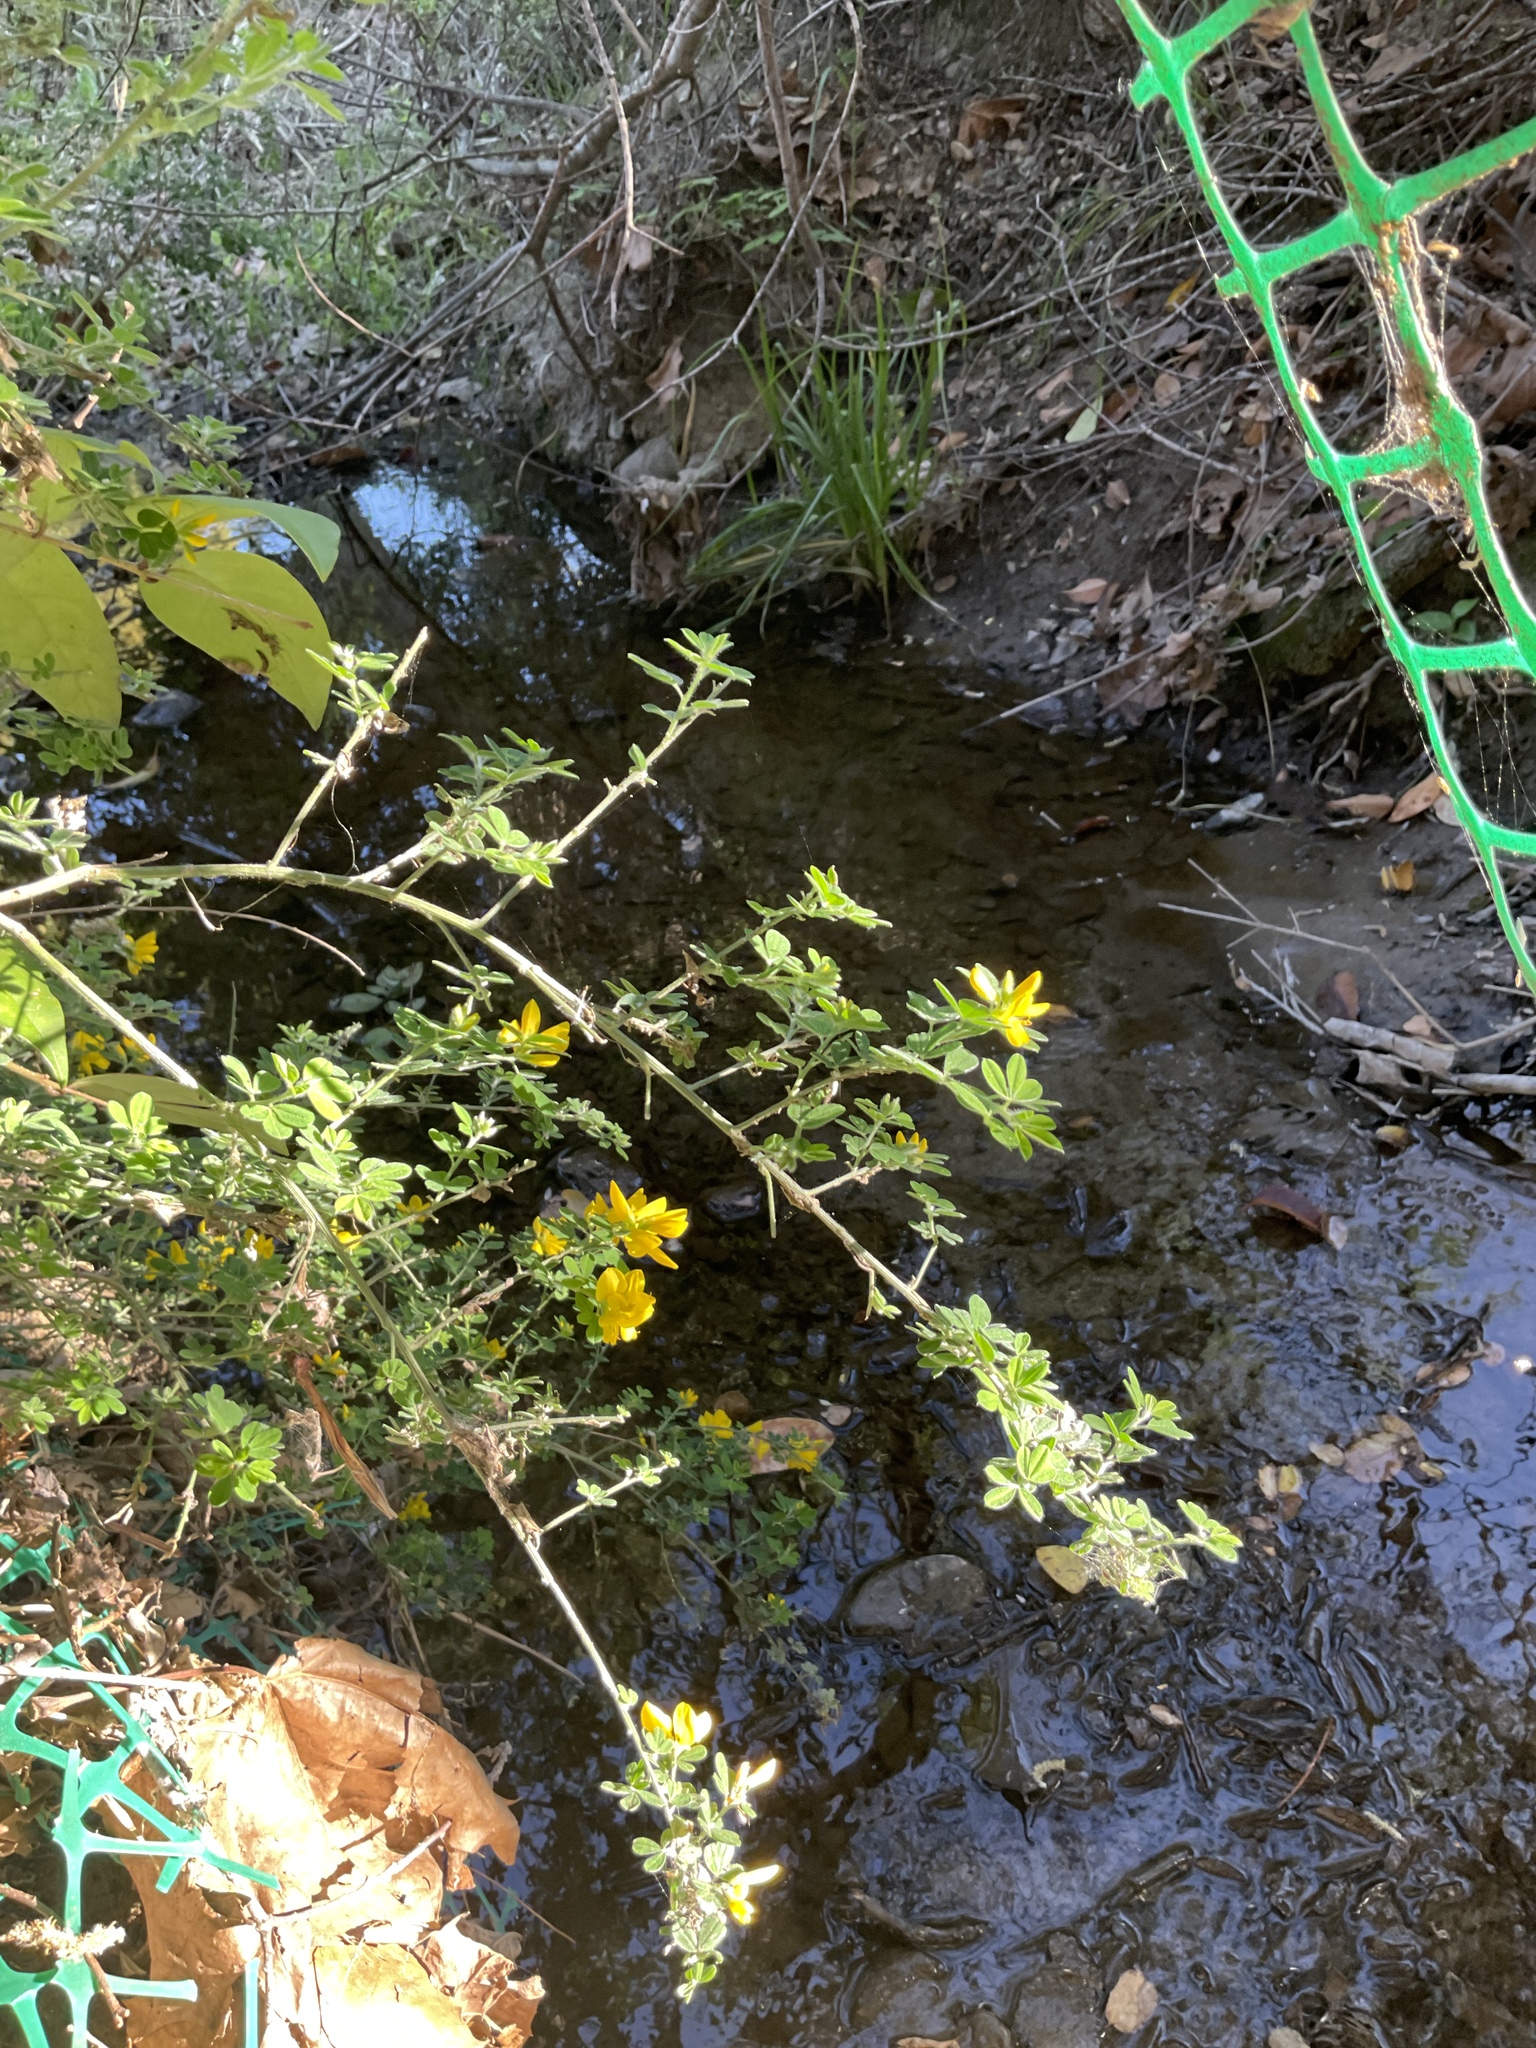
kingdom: Plantae
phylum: Tracheophyta
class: Magnoliopsida
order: Fabales
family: Fabaceae
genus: Genista
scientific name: Genista monspessulana
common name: Montpellier broom
